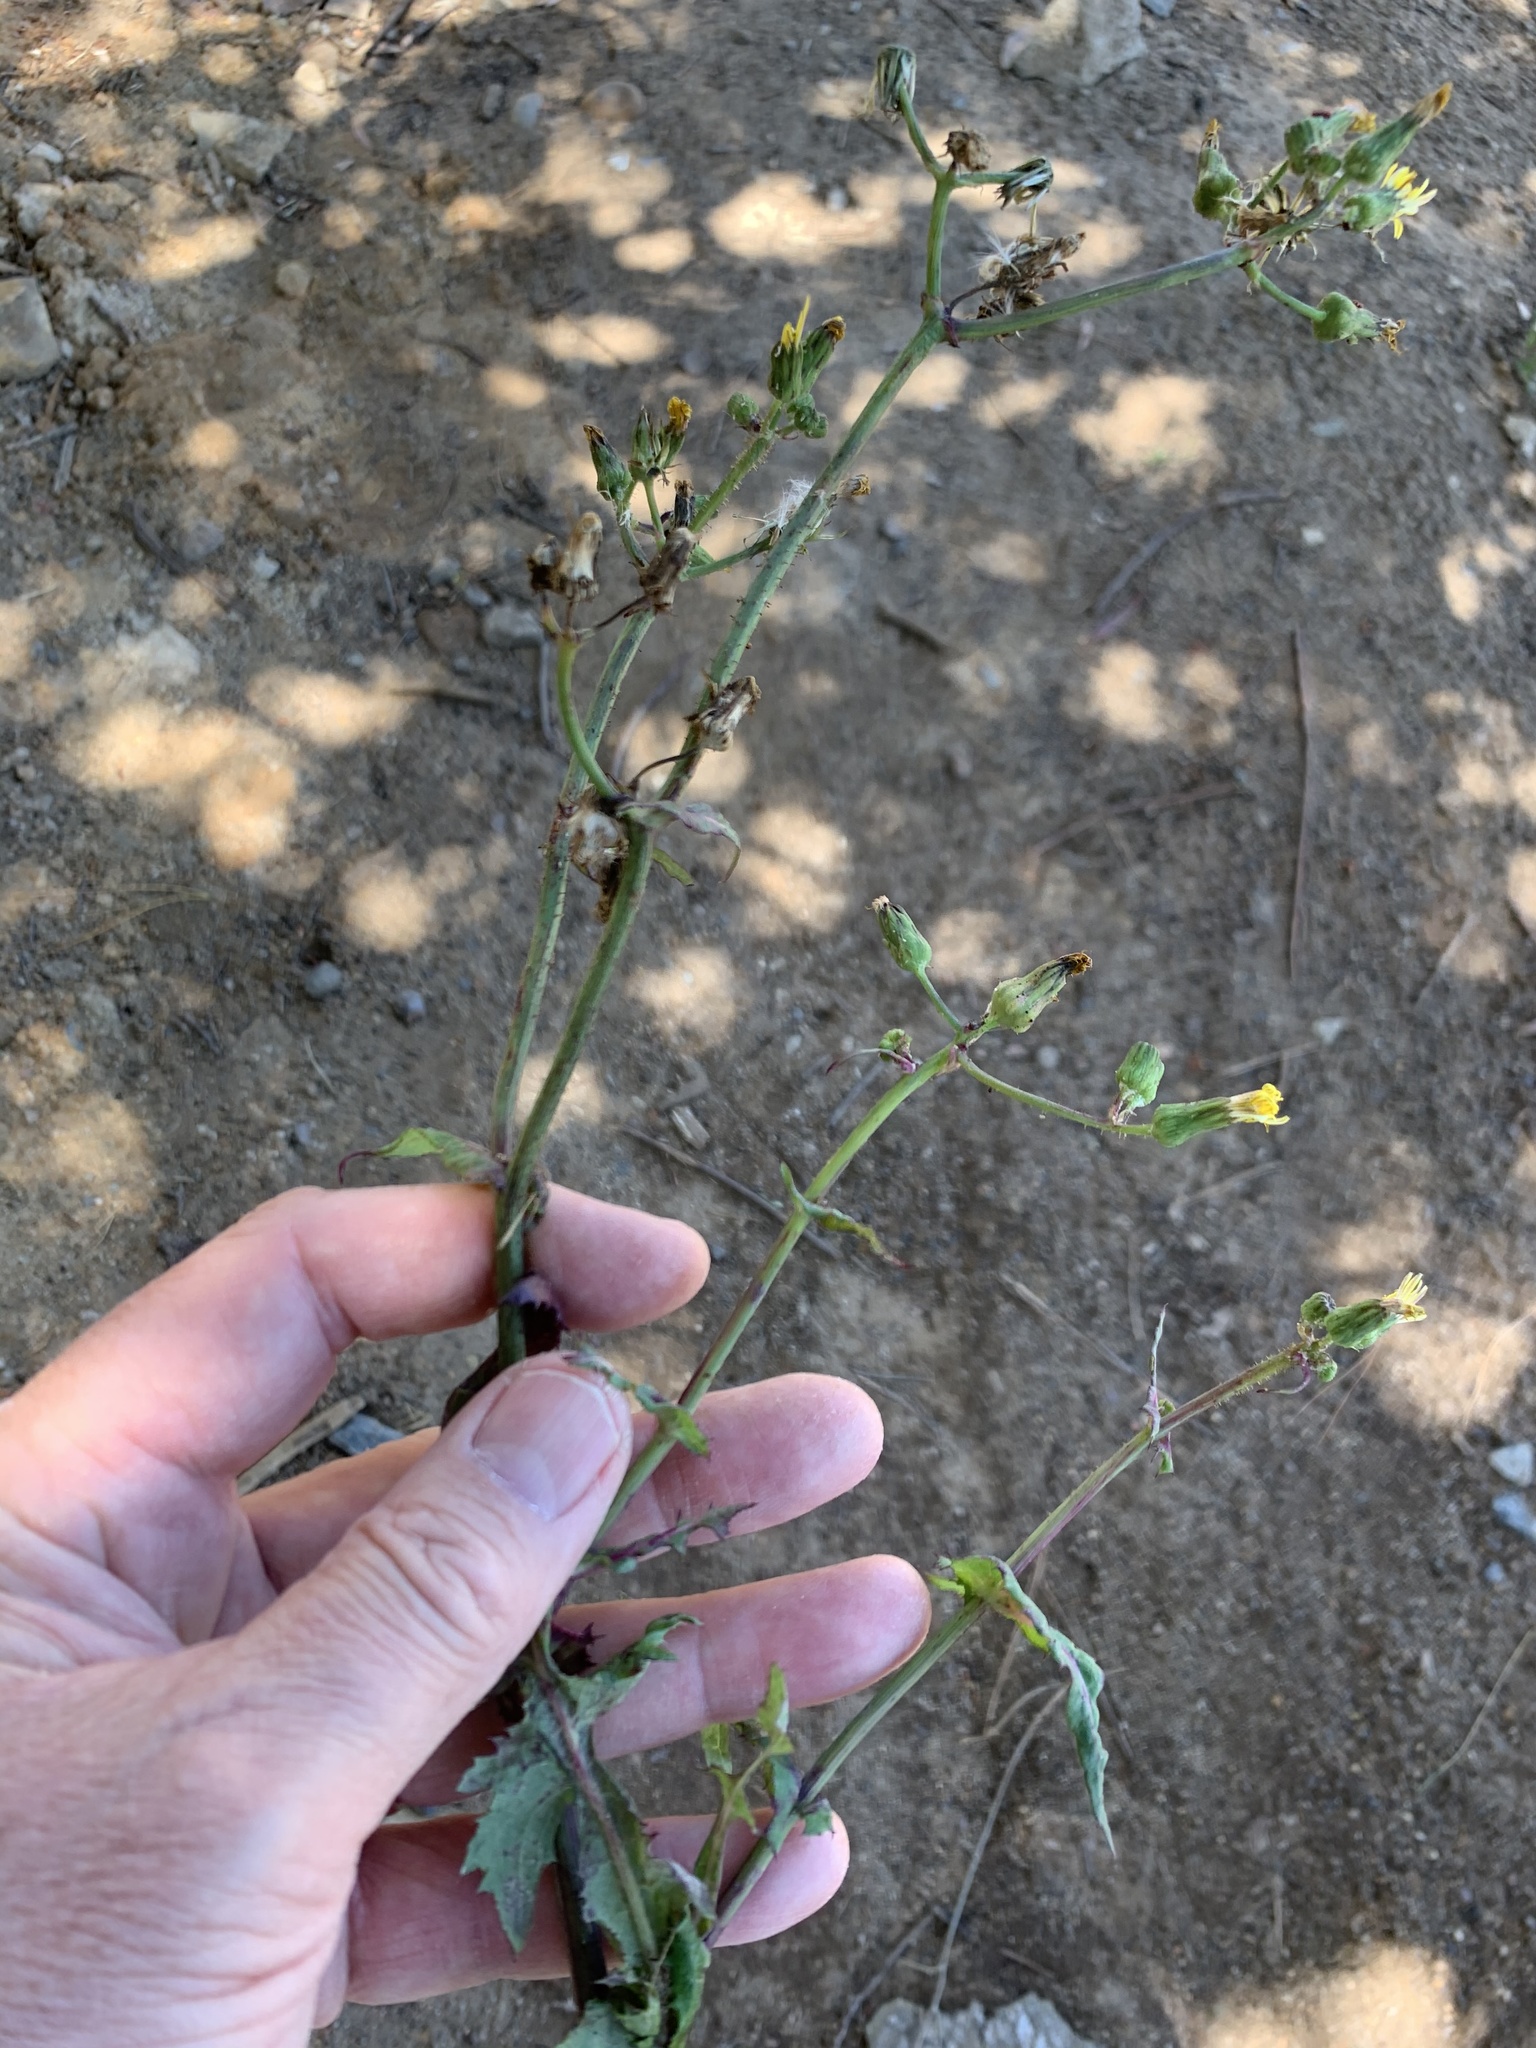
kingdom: Plantae
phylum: Tracheophyta
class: Magnoliopsida
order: Asterales
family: Asteraceae
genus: Sonchus
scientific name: Sonchus oleraceus
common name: Common sowthistle
